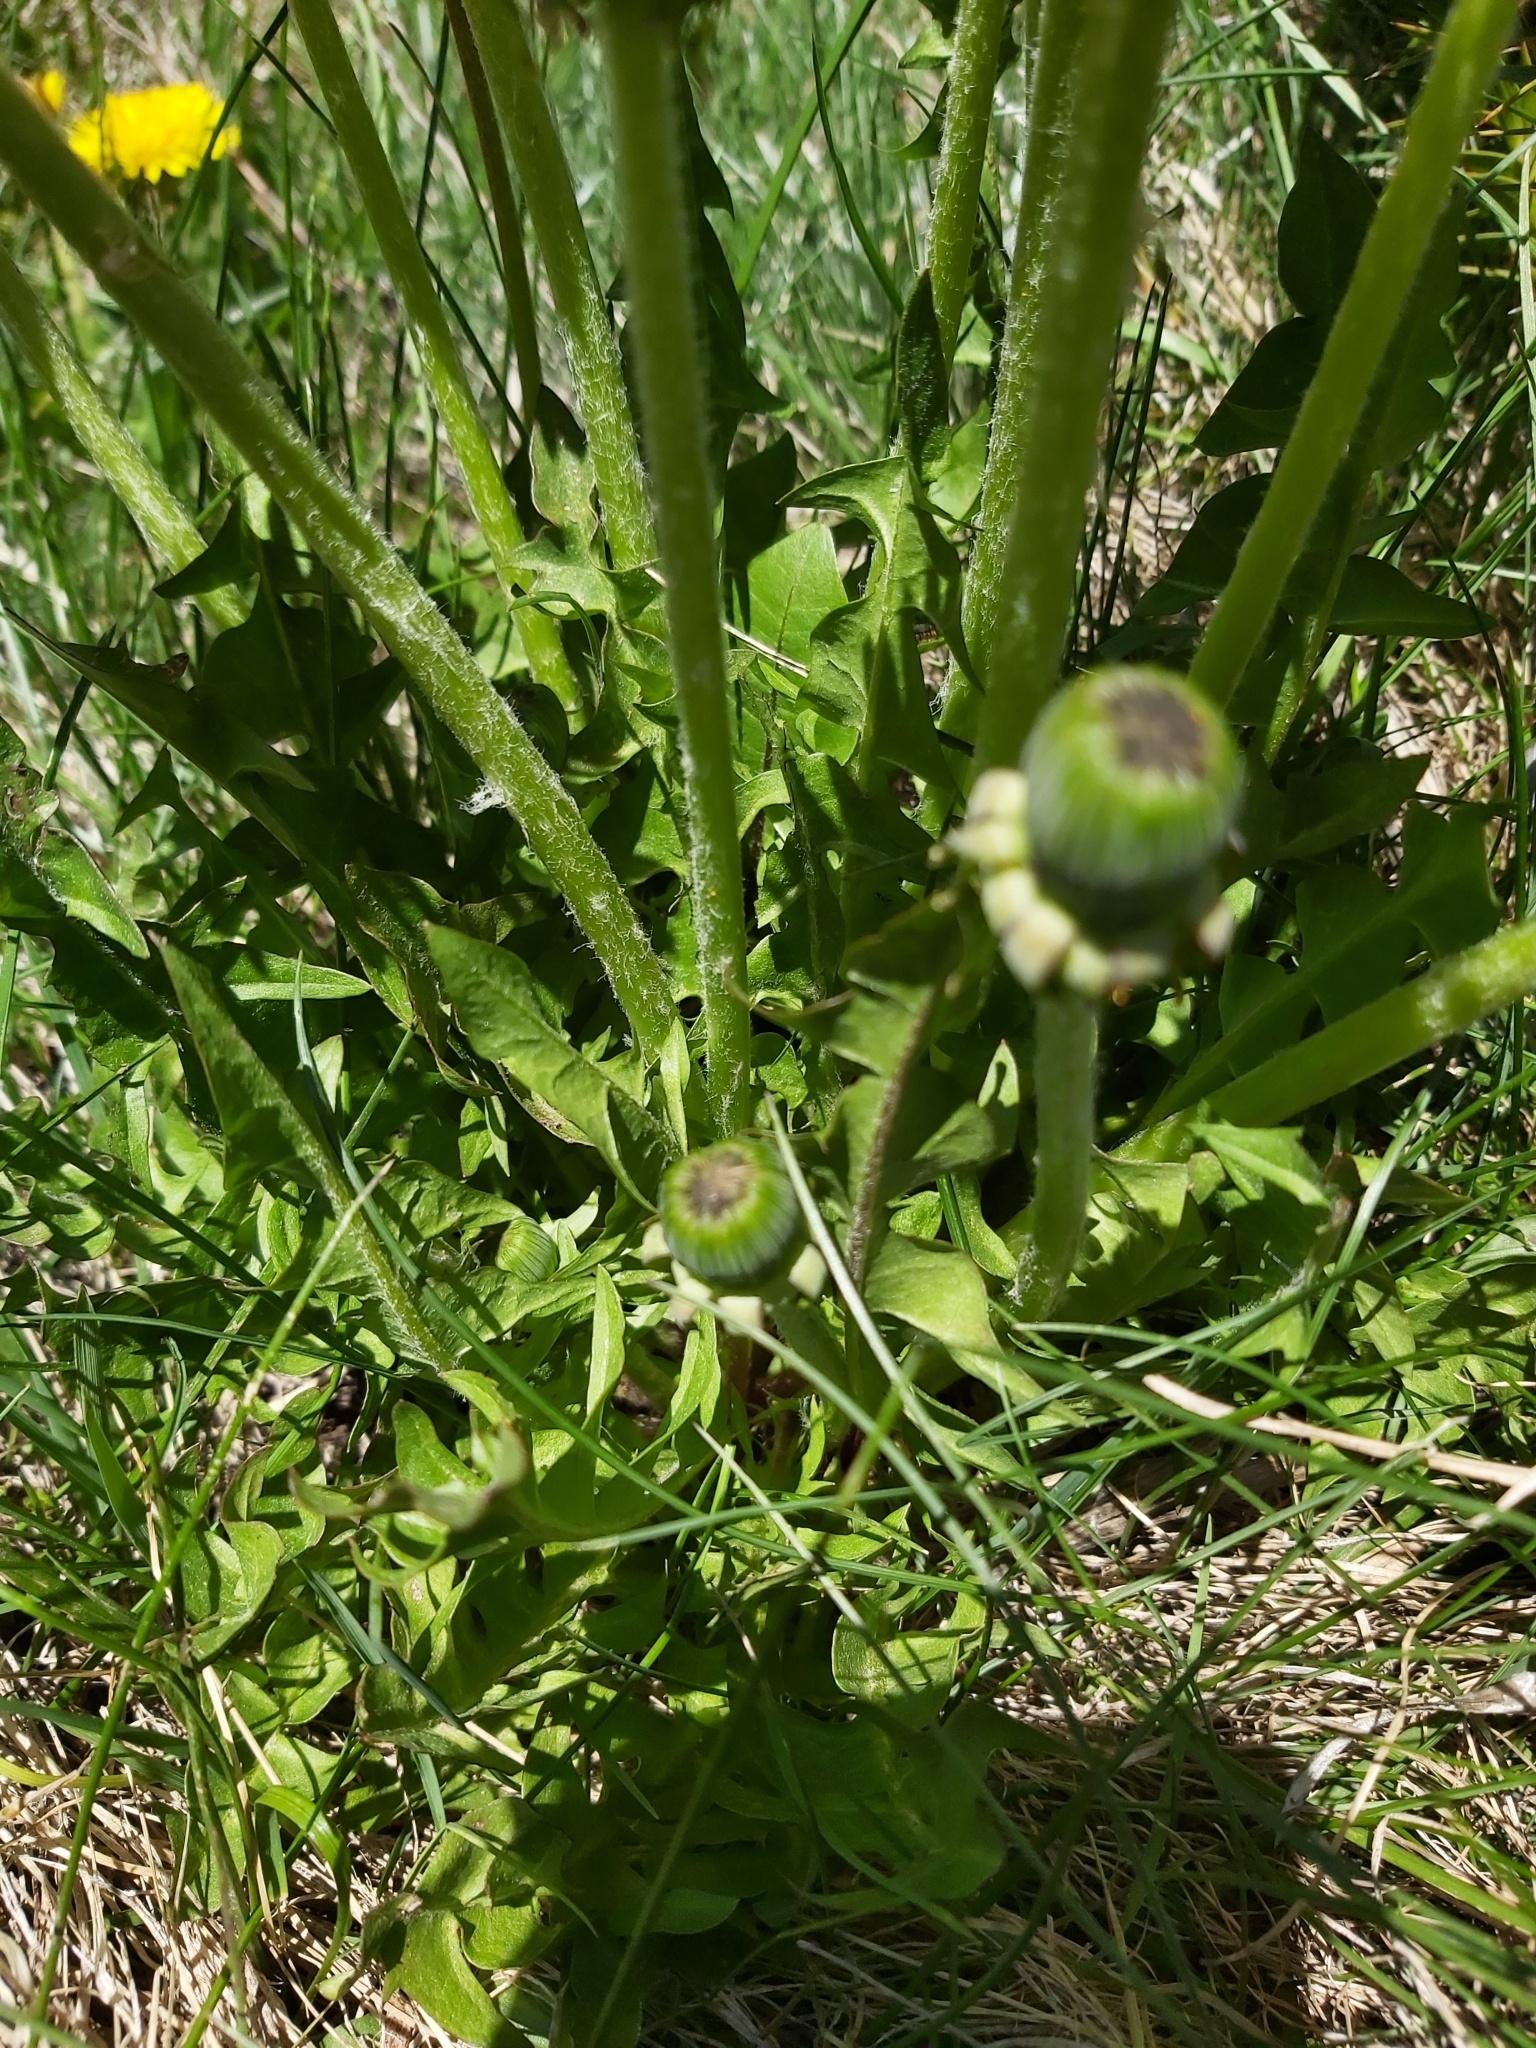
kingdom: Plantae
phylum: Tracheophyta
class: Magnoliopsida
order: Asterales
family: Asteraceae
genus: Taraxacum
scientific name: Taraxacum officinale
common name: Common dandelion
